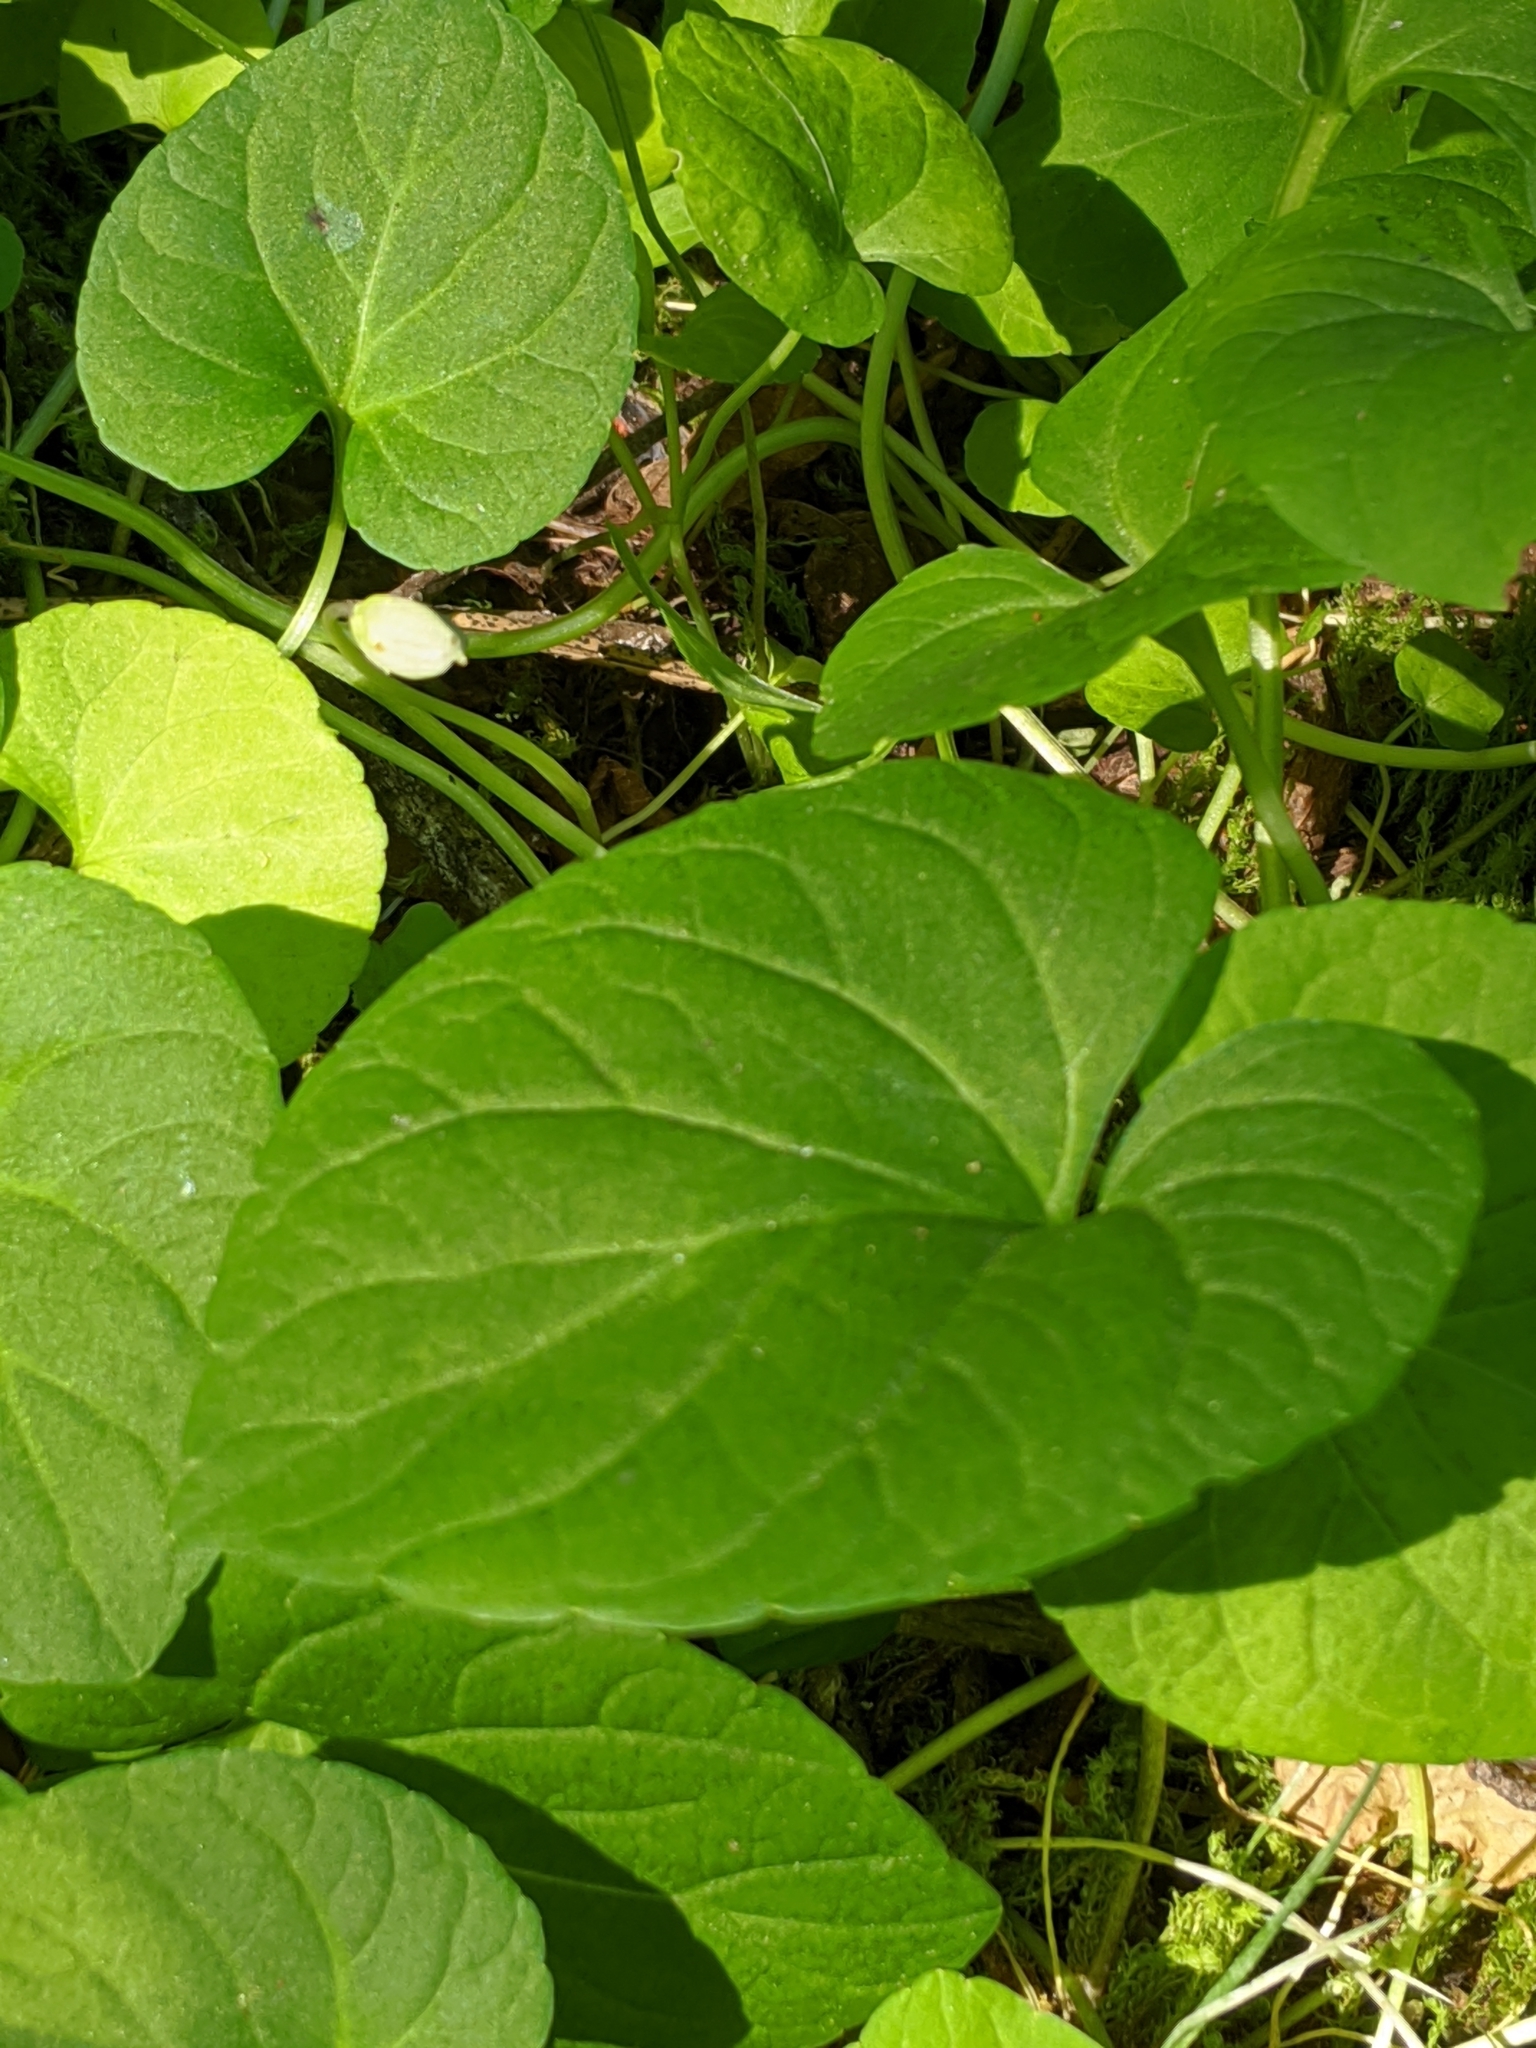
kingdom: Plantae
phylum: Tracheophyta
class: Magnoliopsida
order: Malpighiales
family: Violaceae
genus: Viola
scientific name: Viola palustris
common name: Marsh violet
